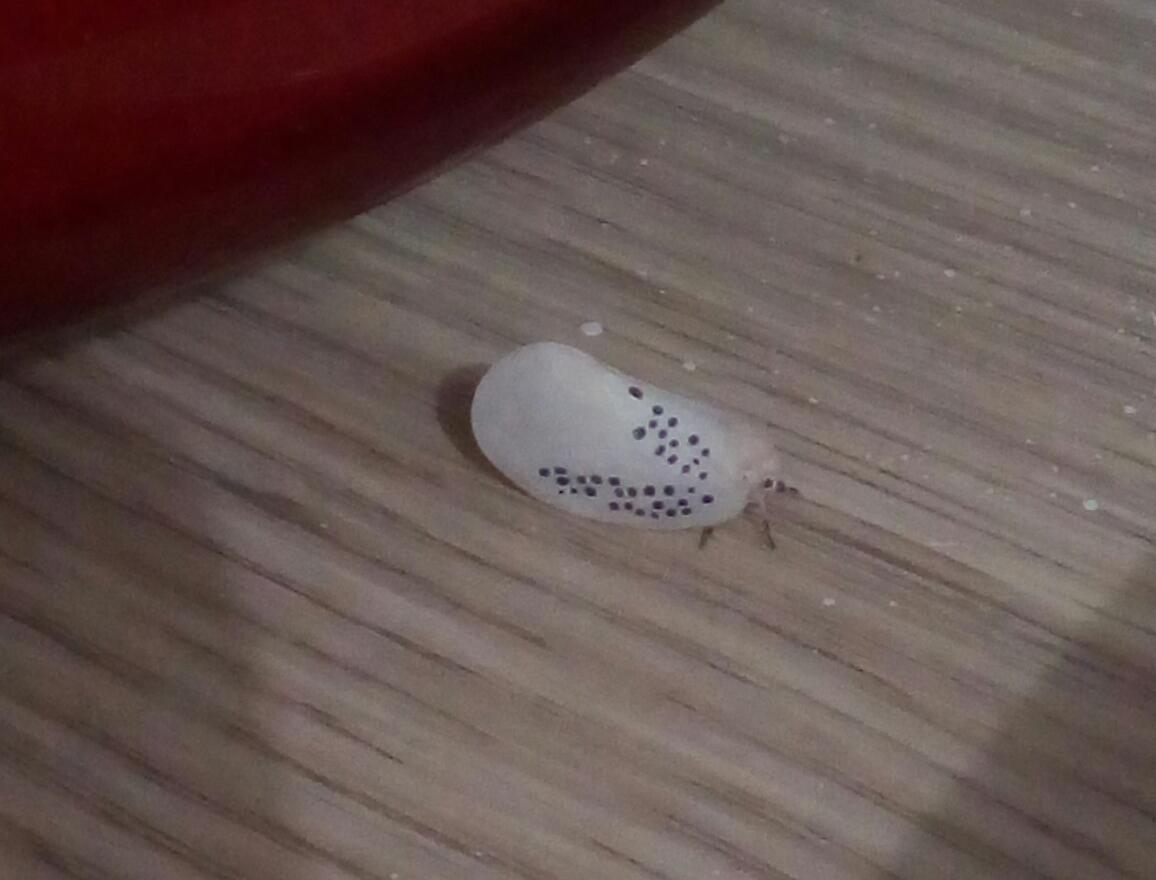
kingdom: Animalia
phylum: Arthropoda
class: Insecta
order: Hemiptera
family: Flatidae
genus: Poekilloptera
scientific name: Poekilloptera phalaenoides
